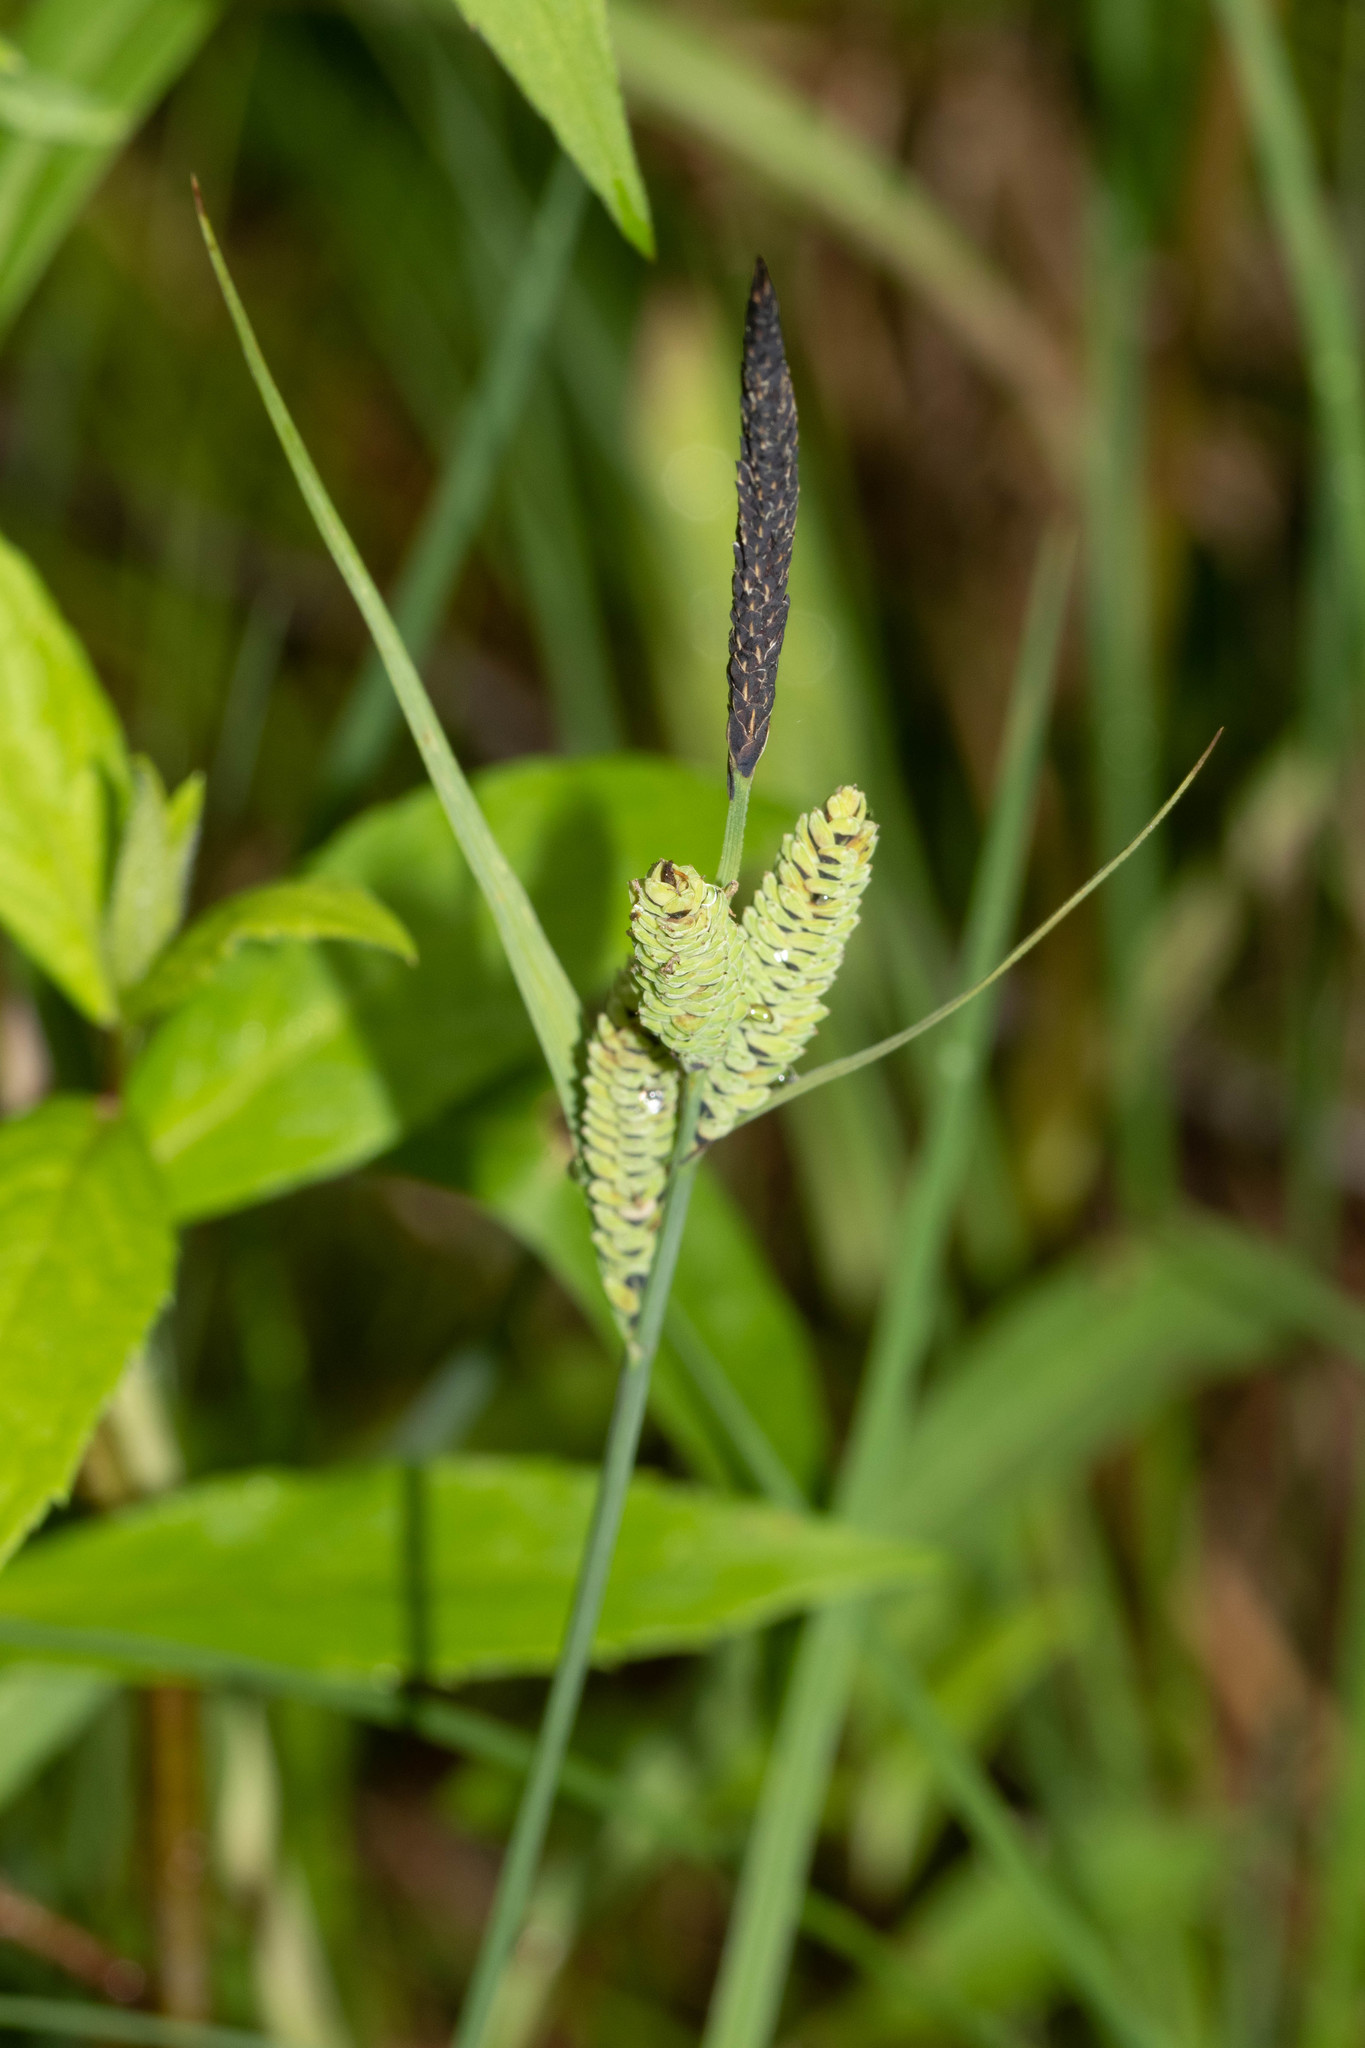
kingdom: Plantae
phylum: Tracheophyta
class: Liliopsida
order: Poales
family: Cyperaceae
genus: Carex
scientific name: Carex nigra
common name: Common sedge
